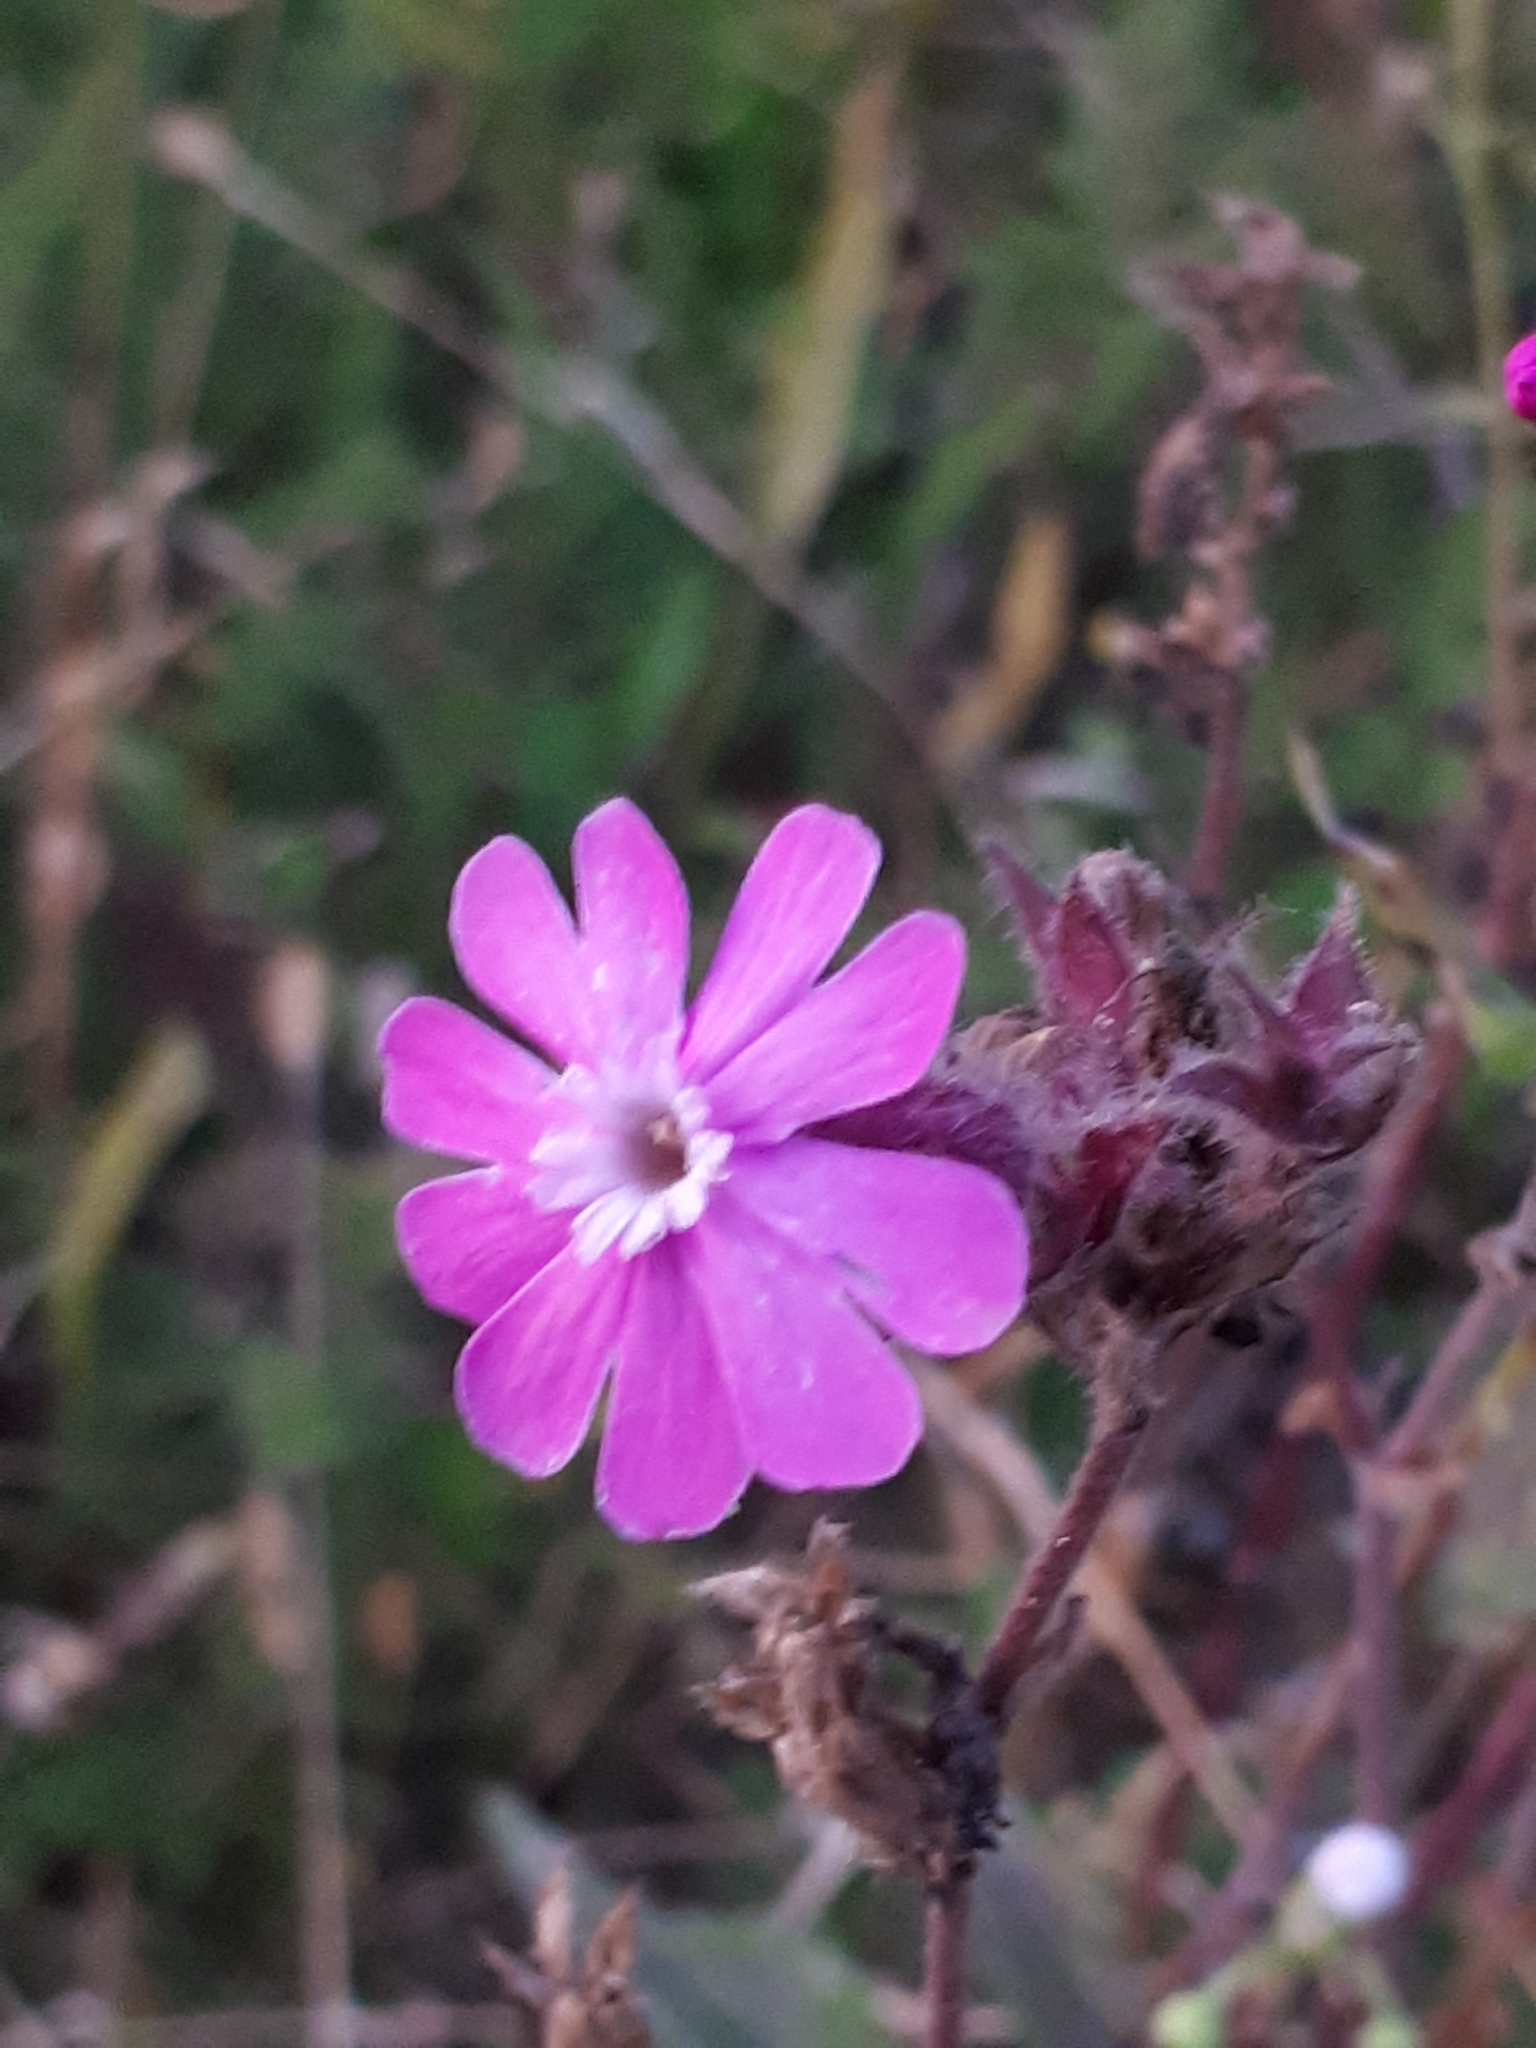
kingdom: Plantae
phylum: Tracheophyta
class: Magnoliopsida
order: Caryophyllales
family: Caryophyllaceae
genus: Silene
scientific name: Silene dioica
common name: Red campion
